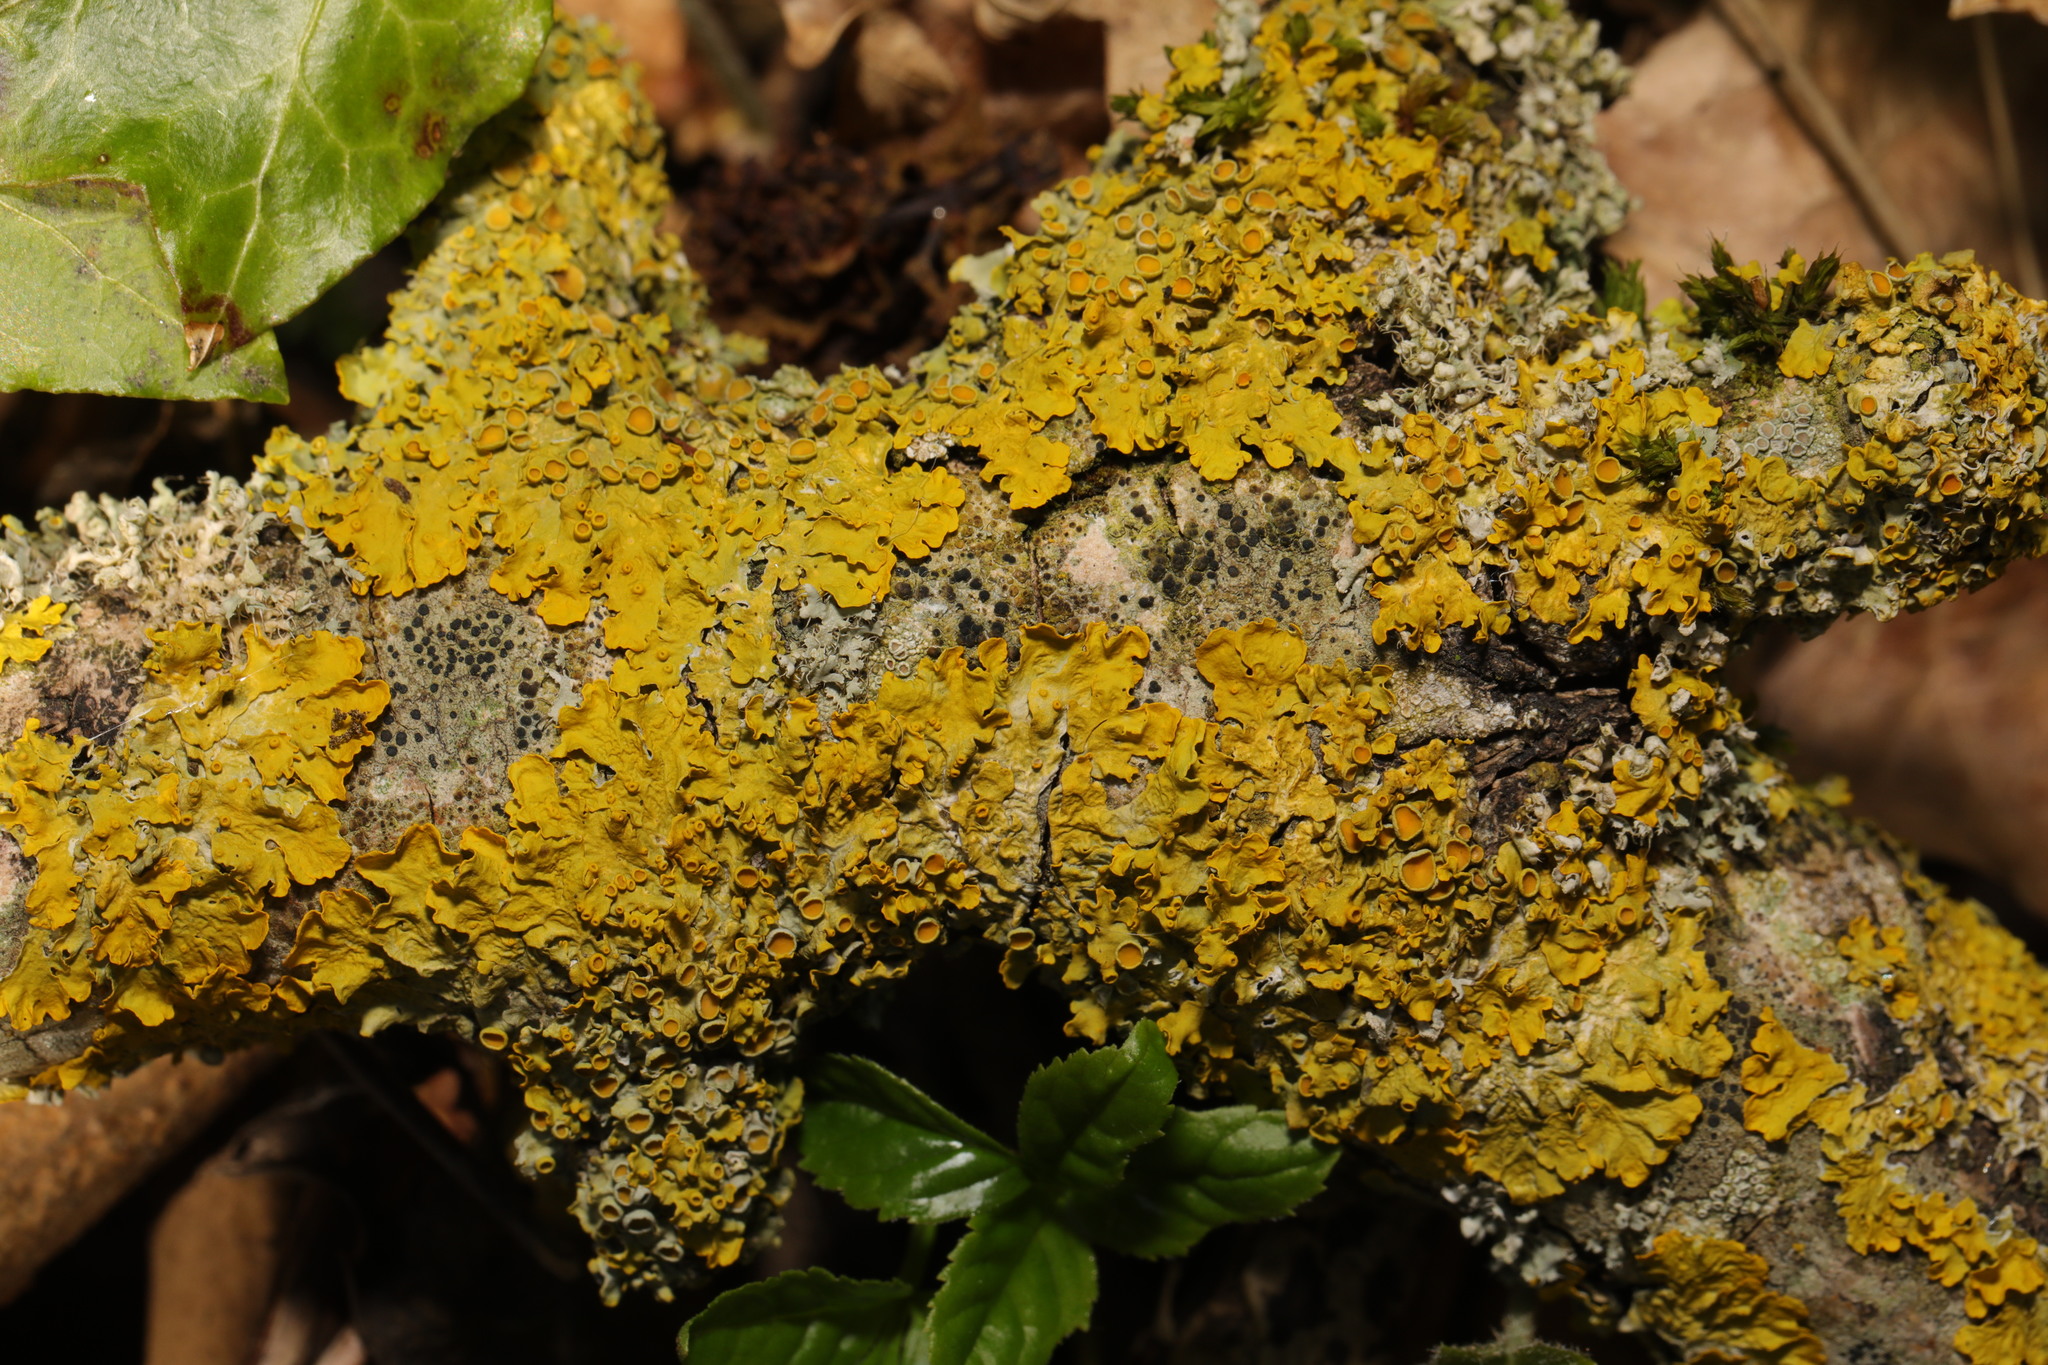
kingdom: Fungi
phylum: Ascomycota
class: Lecanoromycetes
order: Teloschistales
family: Teloschistaceae
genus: Xanthoria
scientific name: Xanthoria parietina
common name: Common orange lichen
